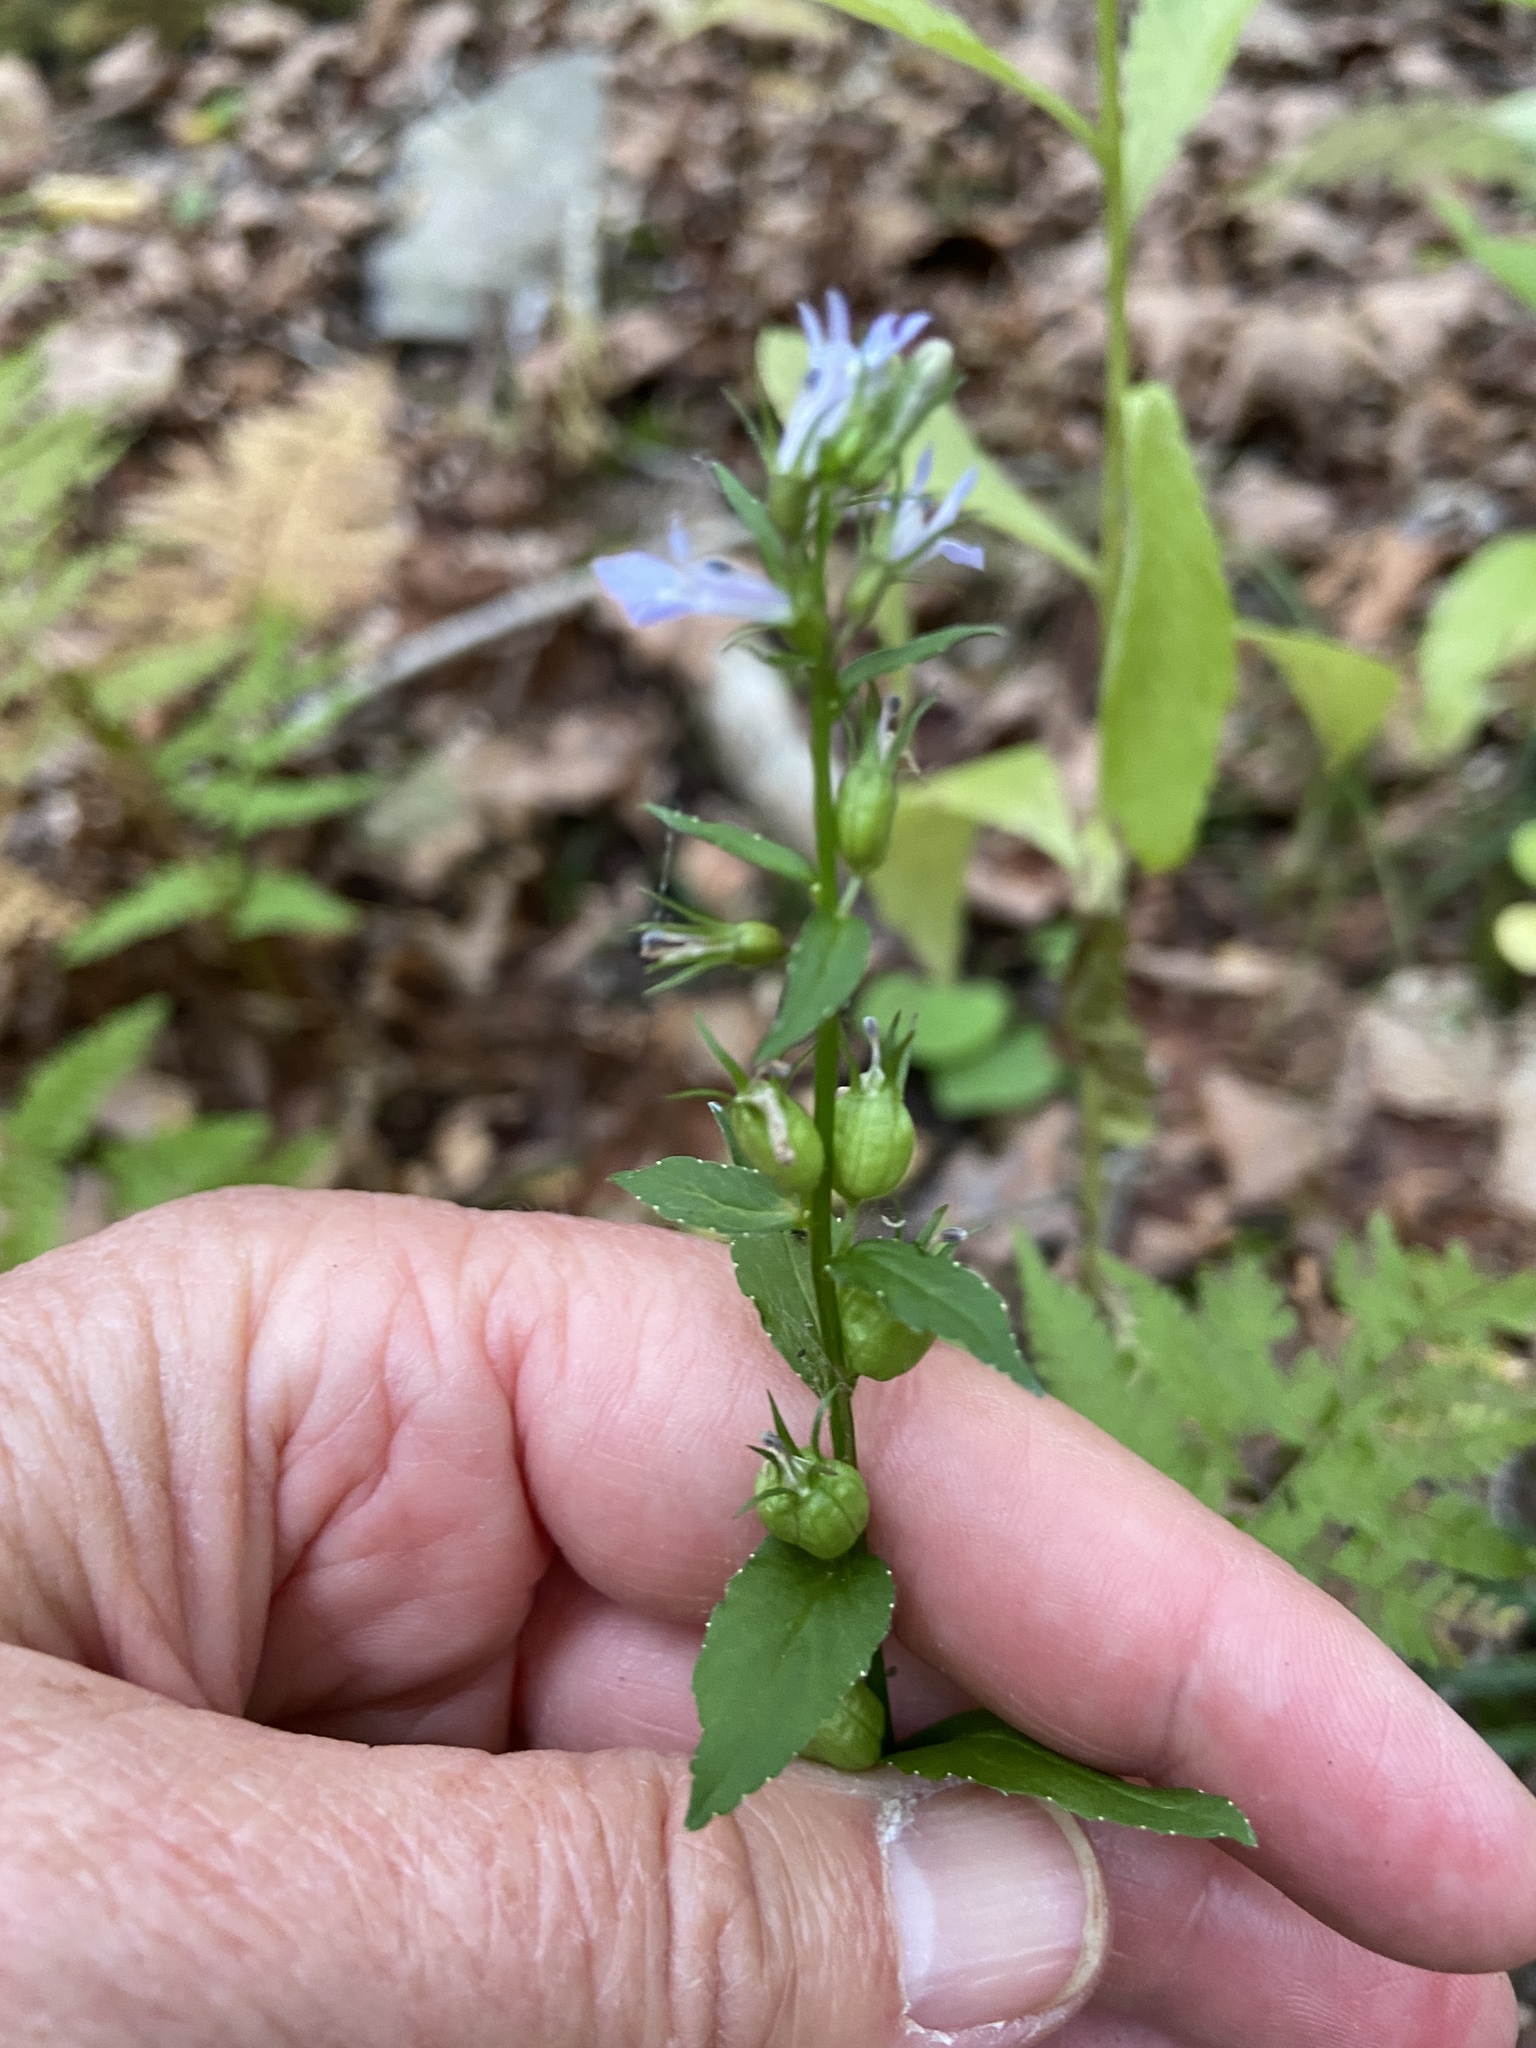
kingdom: Plantae
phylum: Tracheophyta
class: Magnoliopsida
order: Asterales
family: Campanulaceae
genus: Lobelia
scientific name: Lobelia inflata
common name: Indian tobacco
